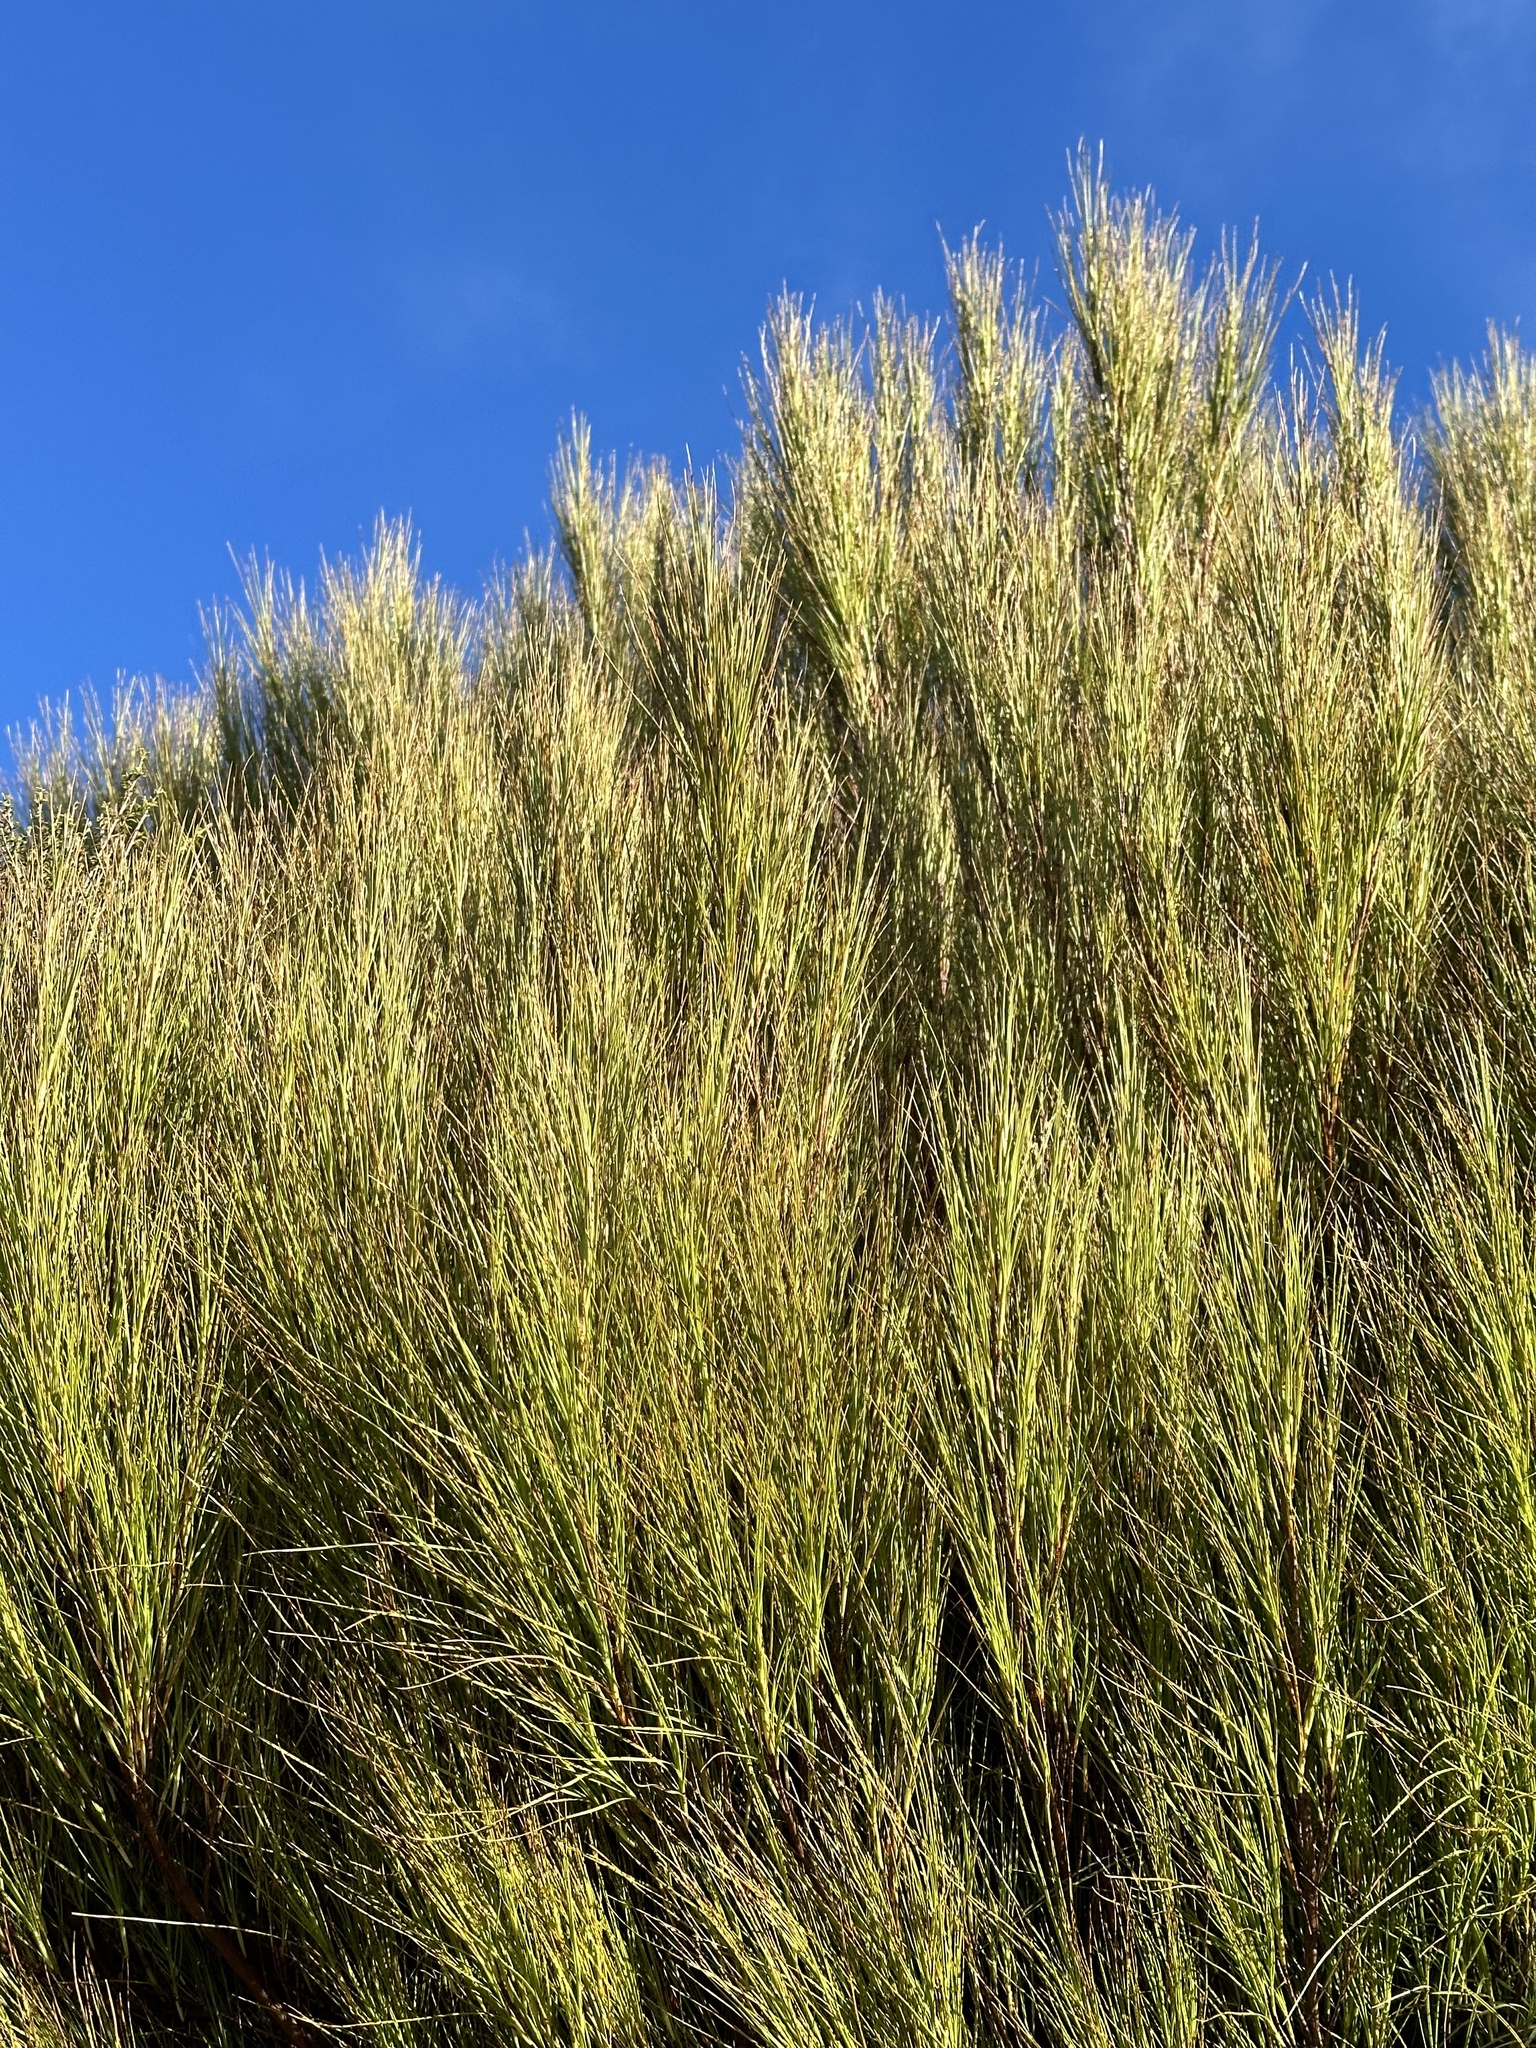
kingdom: Plantae
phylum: Tracheophyta
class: Magnoliopsida
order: Ericales
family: Ericaceae
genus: Dracophyllum
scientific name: Dracophyllum filifolium
